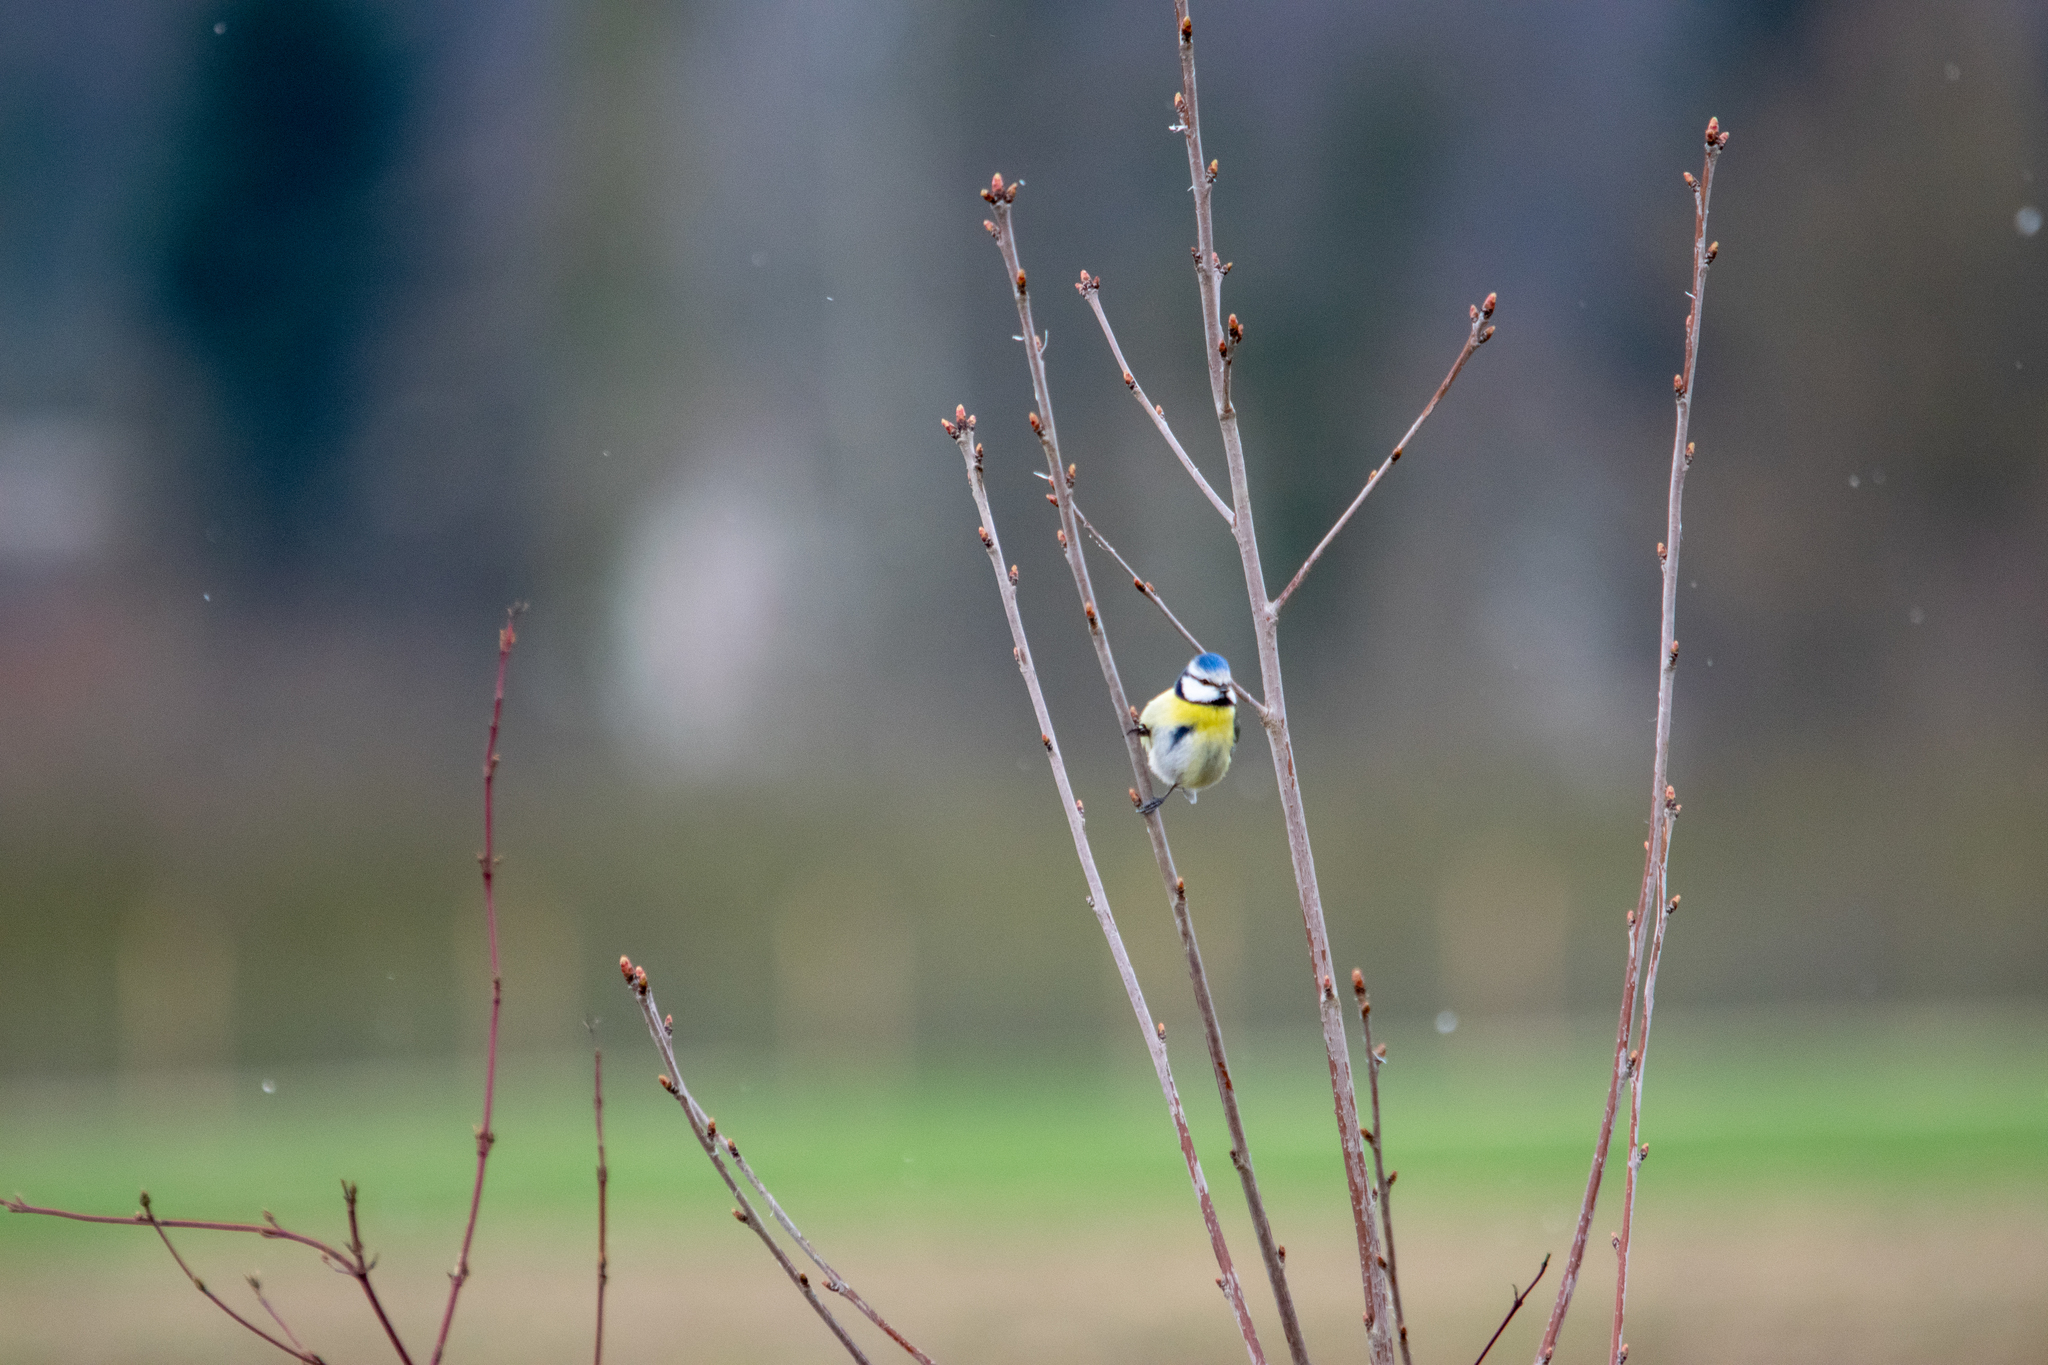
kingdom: Animalia
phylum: Chordata
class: Aves
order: Passeriformes
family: Paridae
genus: Cyanistes
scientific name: Cyanistes caeruleus
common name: Eurasian blue tit
